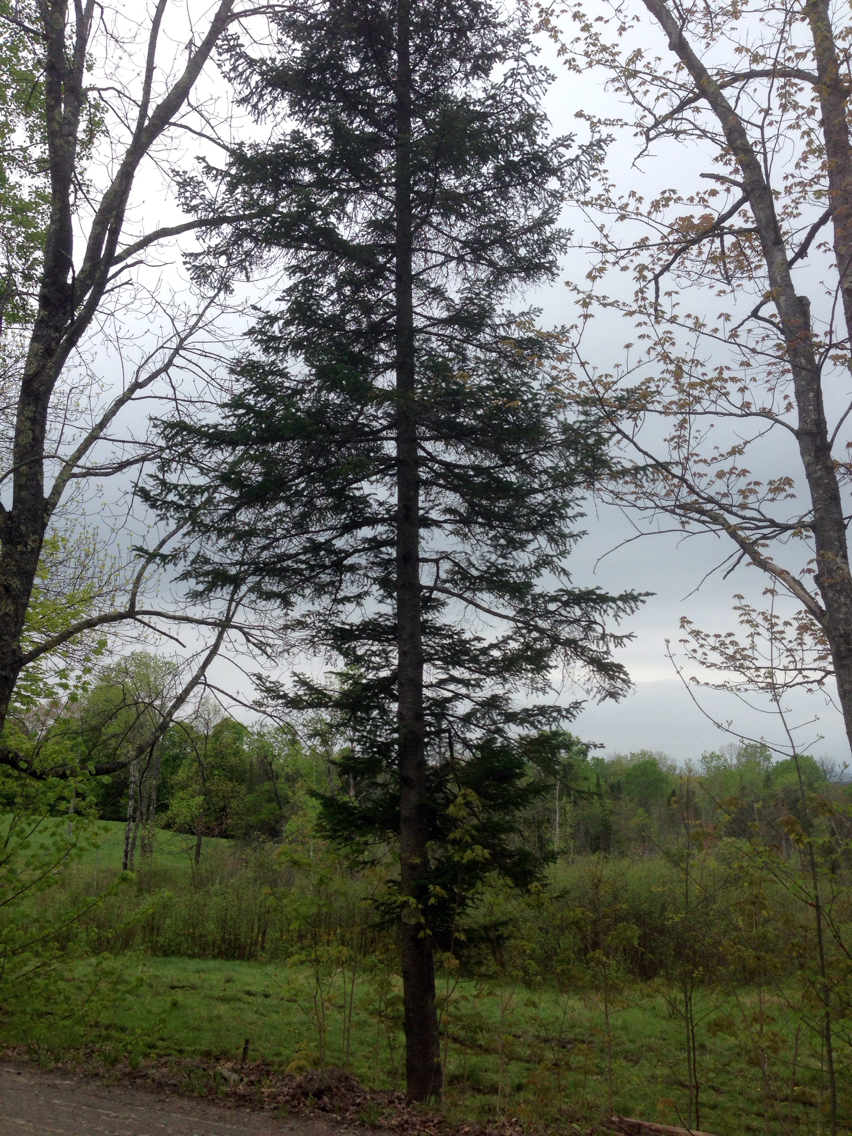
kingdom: Plantae
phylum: Tracheophyta
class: Pinopsida
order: Pinales
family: Pinaceae
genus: Abies
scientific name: Abies balsamea
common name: Balsam fir
